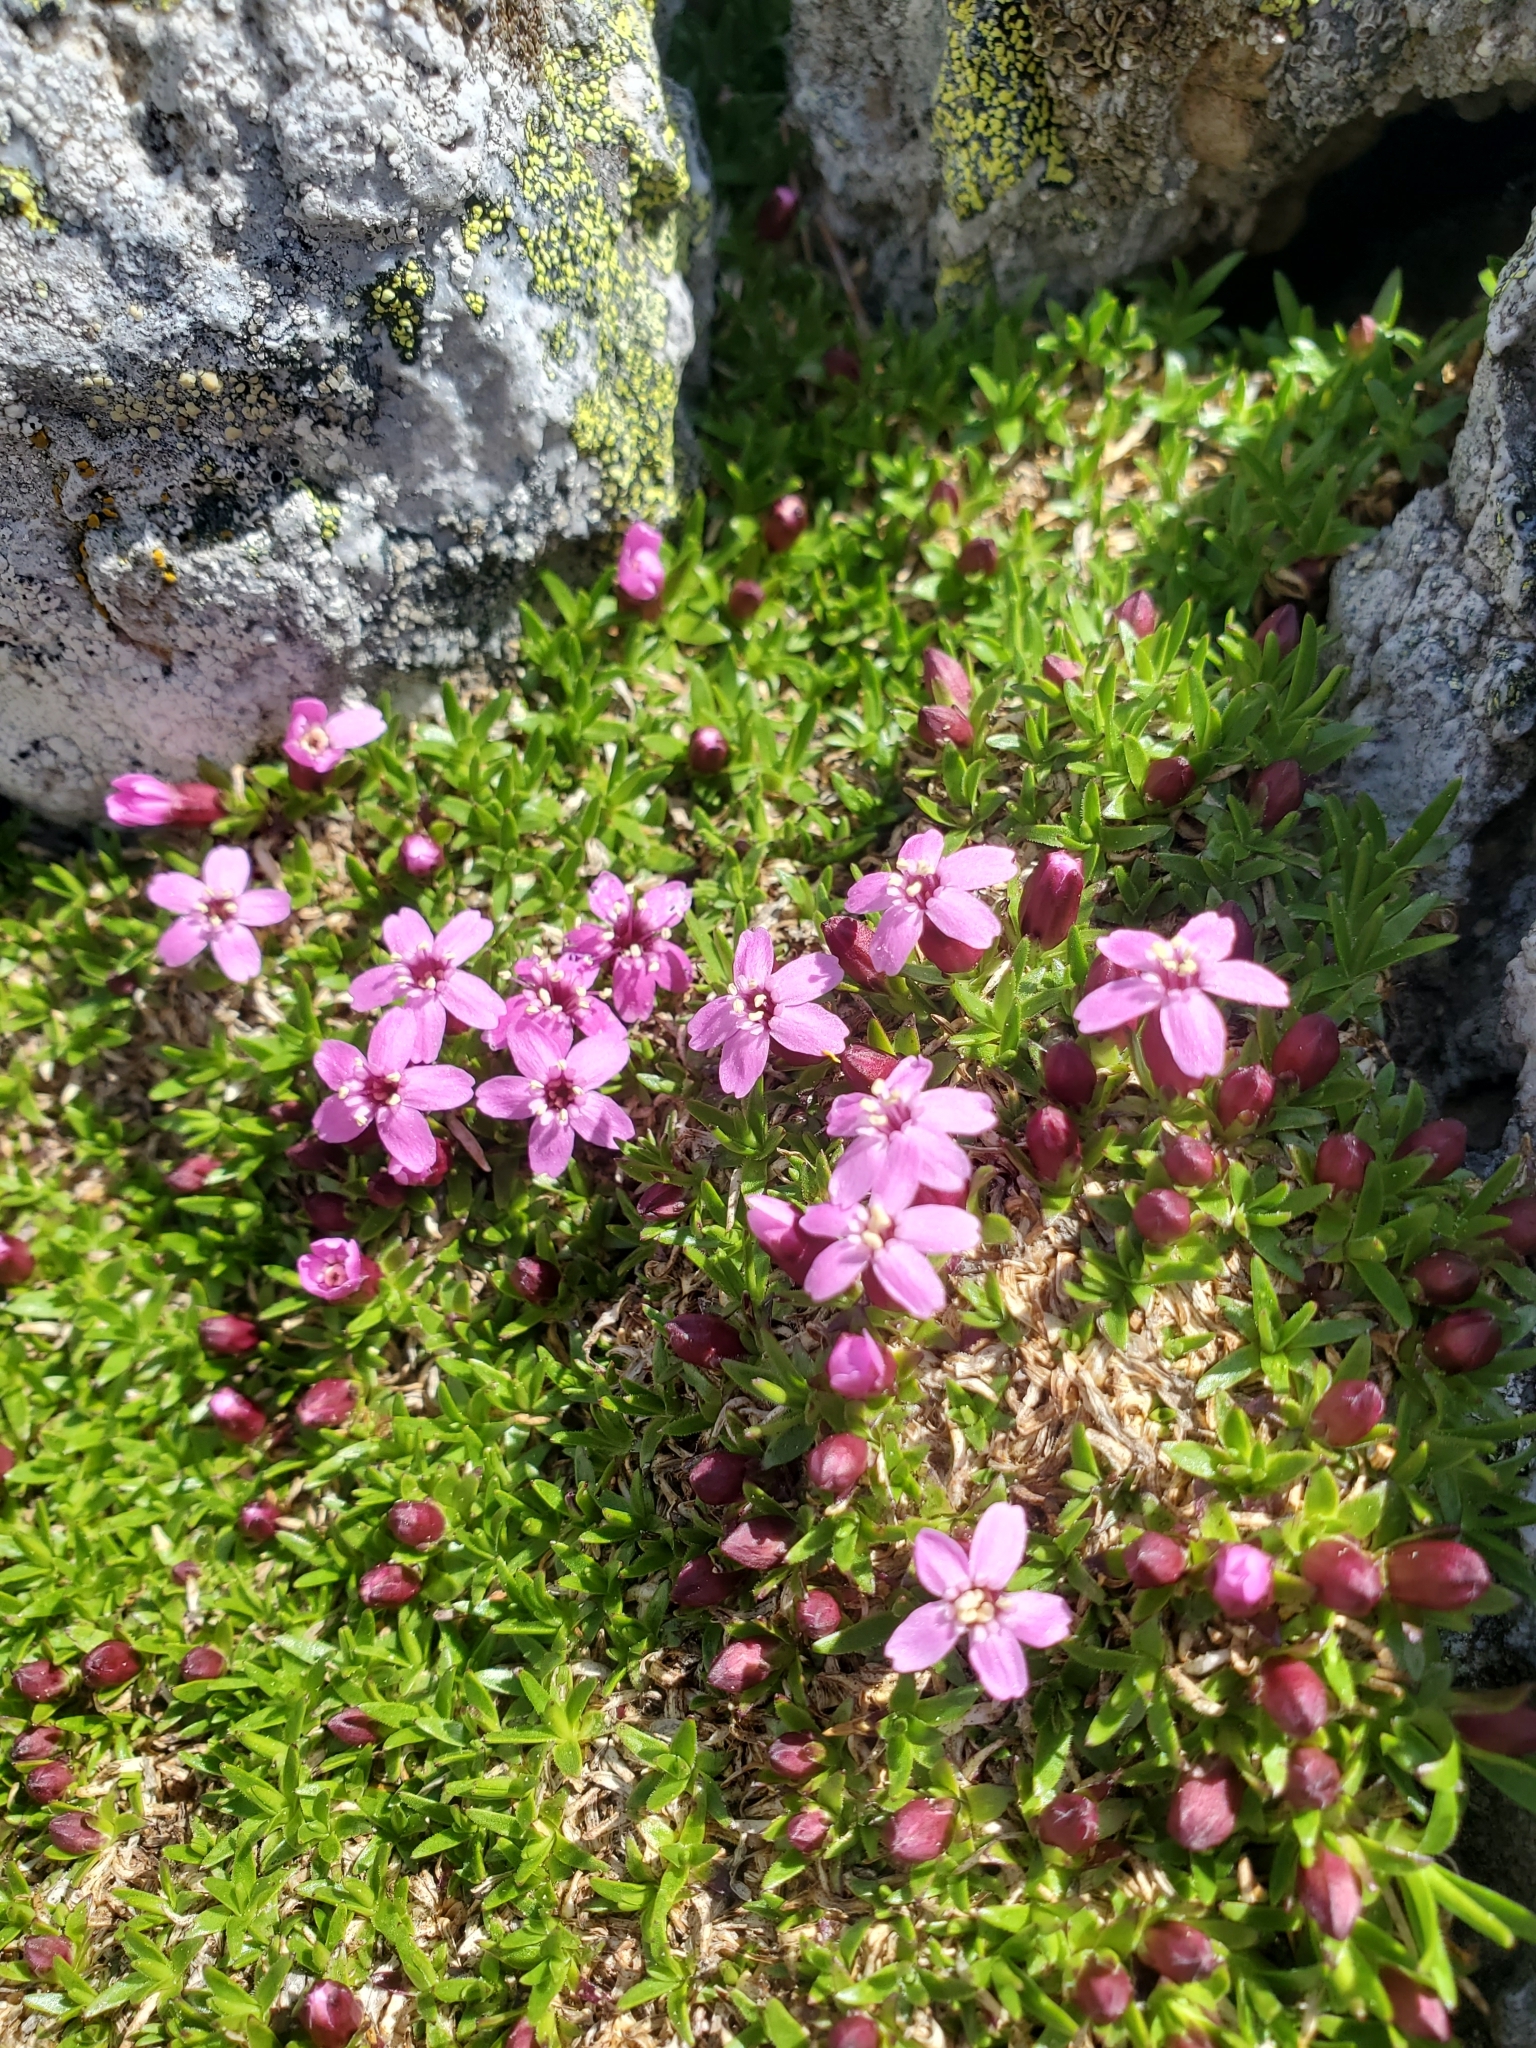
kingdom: Plantae
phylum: Tracheophyta
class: Magnoliopsida
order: Caryophyllales
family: Caryophyllaceae
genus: Silene
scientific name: Silene acaulis
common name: Moss campion
